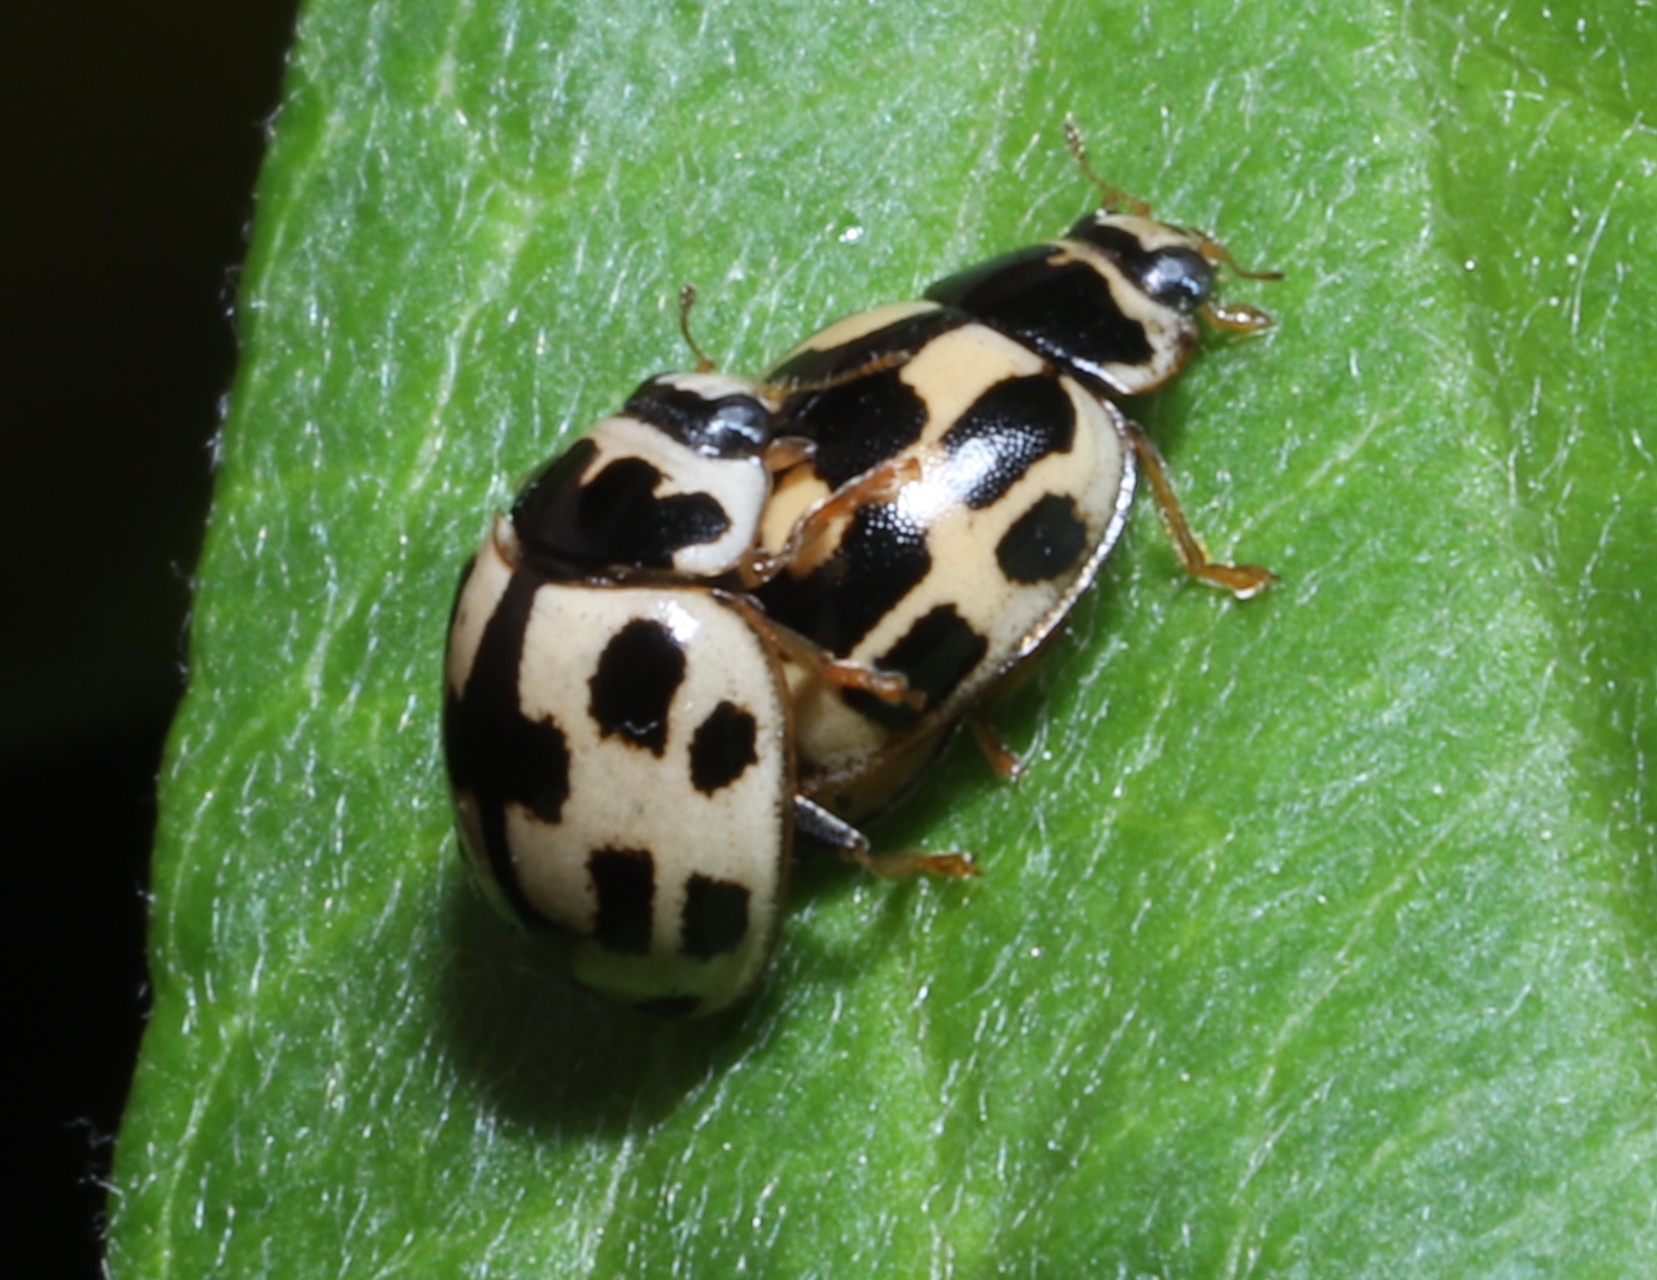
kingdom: Animalia
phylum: Arthropoda
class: Insecta
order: Coleoptera
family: Coccinellidae
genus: Propylaea
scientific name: Propylaea quatuordecimpunctata
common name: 14-spotted ladybird beetle
